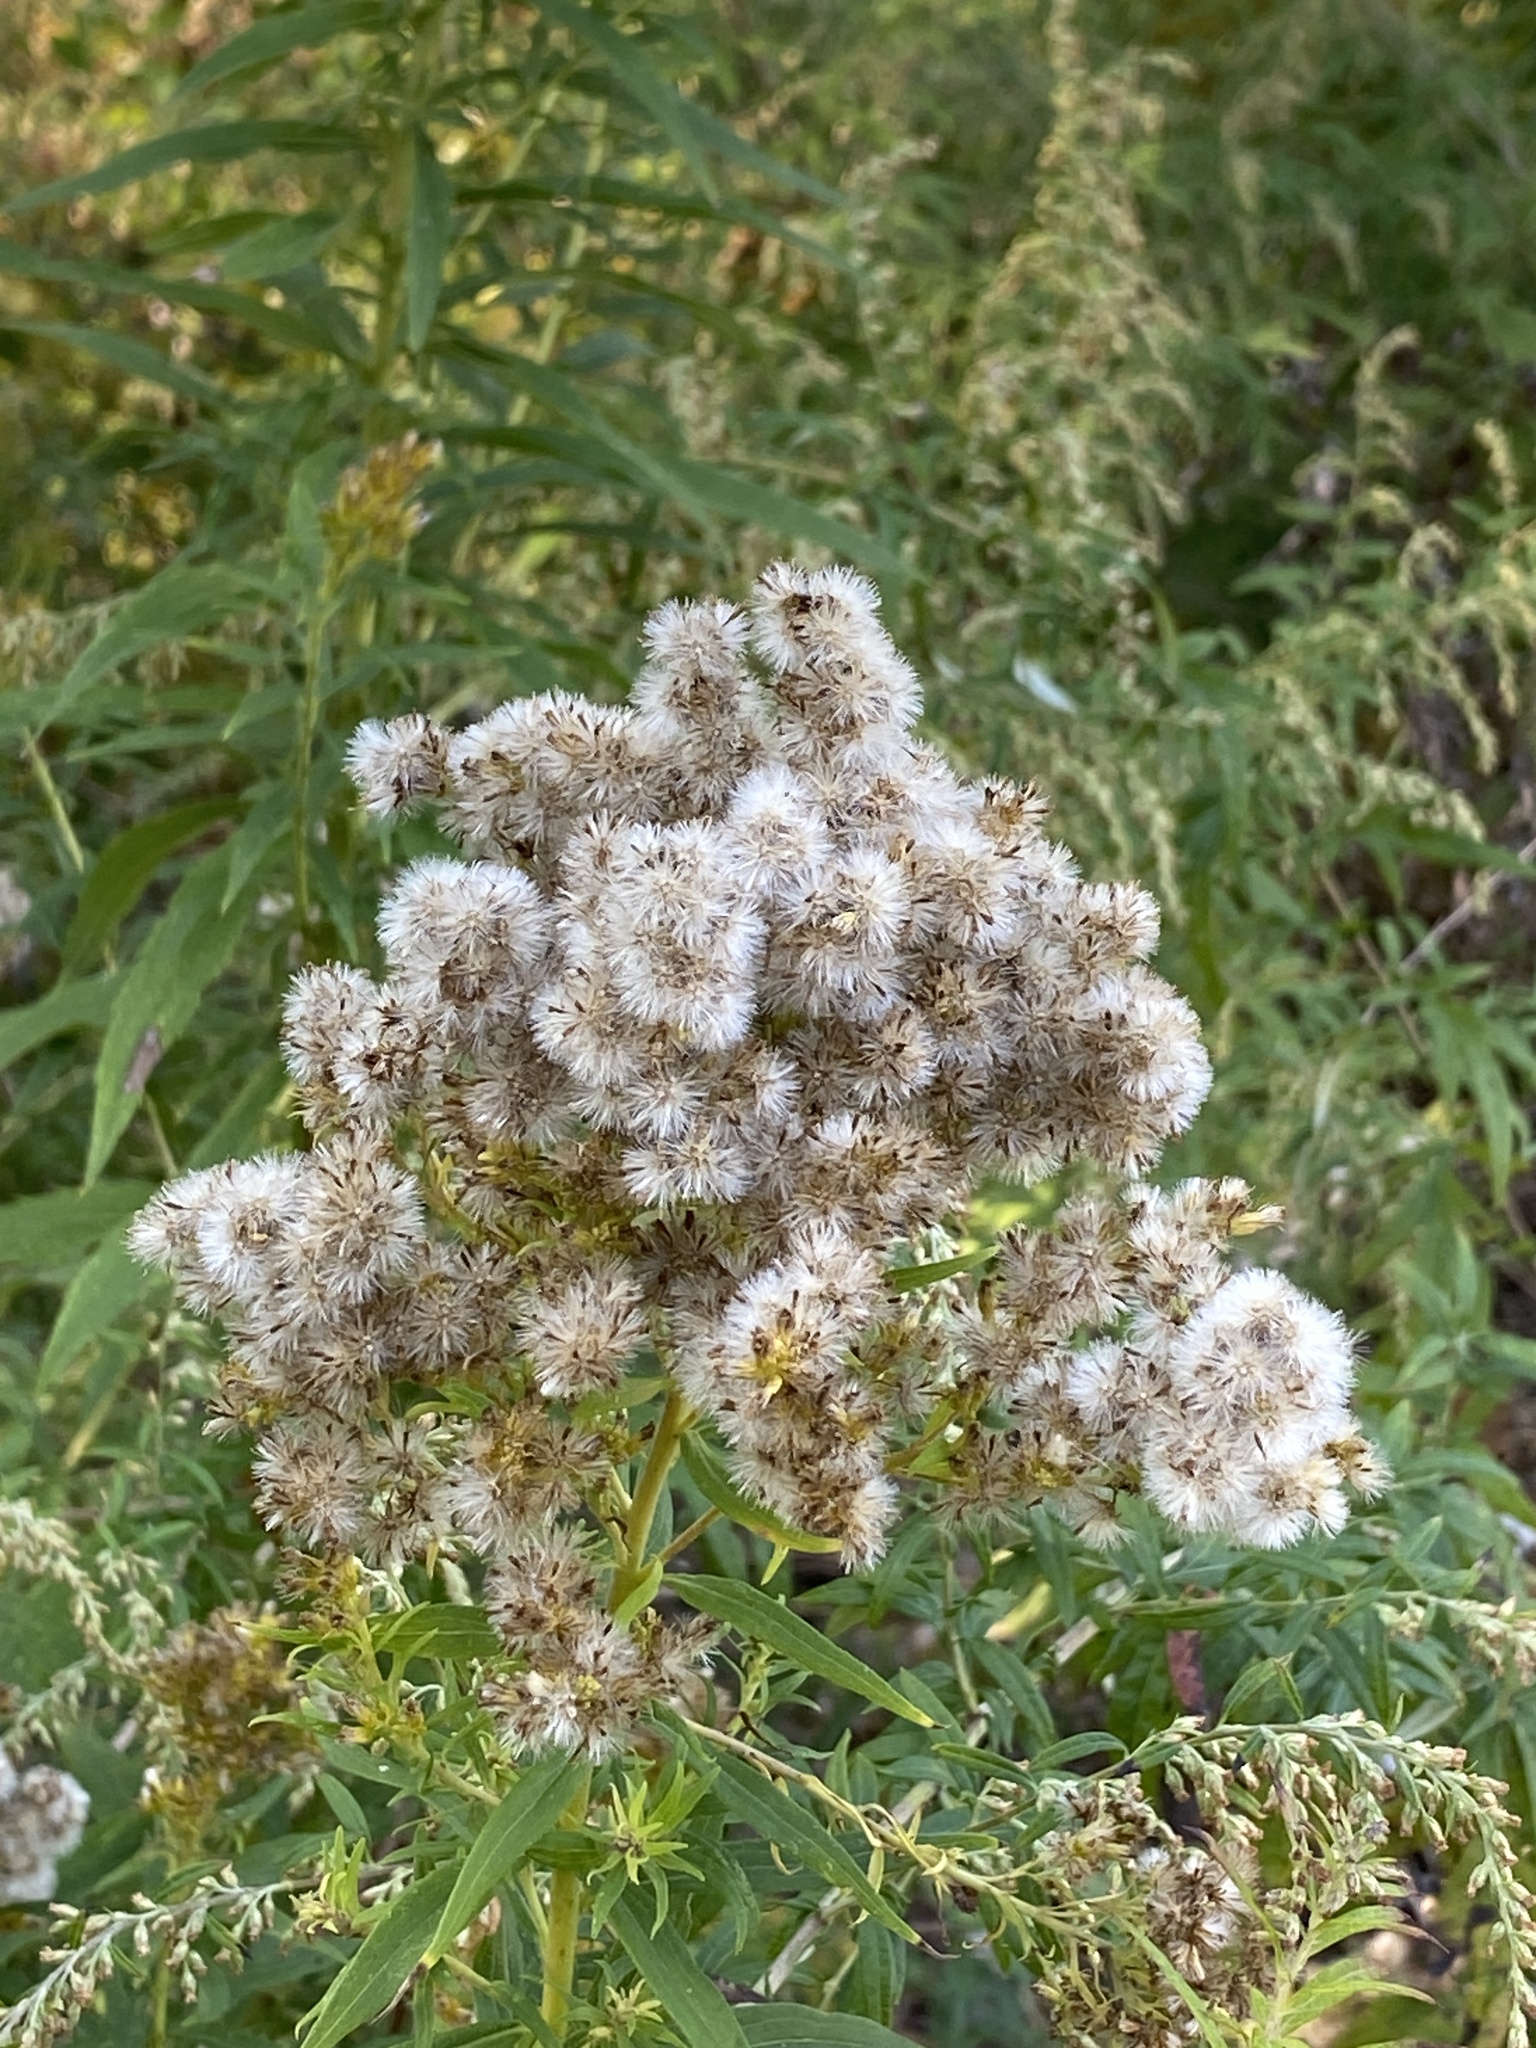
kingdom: Plantae
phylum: Tracheophyta
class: Magnoliopsida
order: Asterales
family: Asteraceae
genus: Solidago
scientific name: Solidago altissima
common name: Late goldenrod
